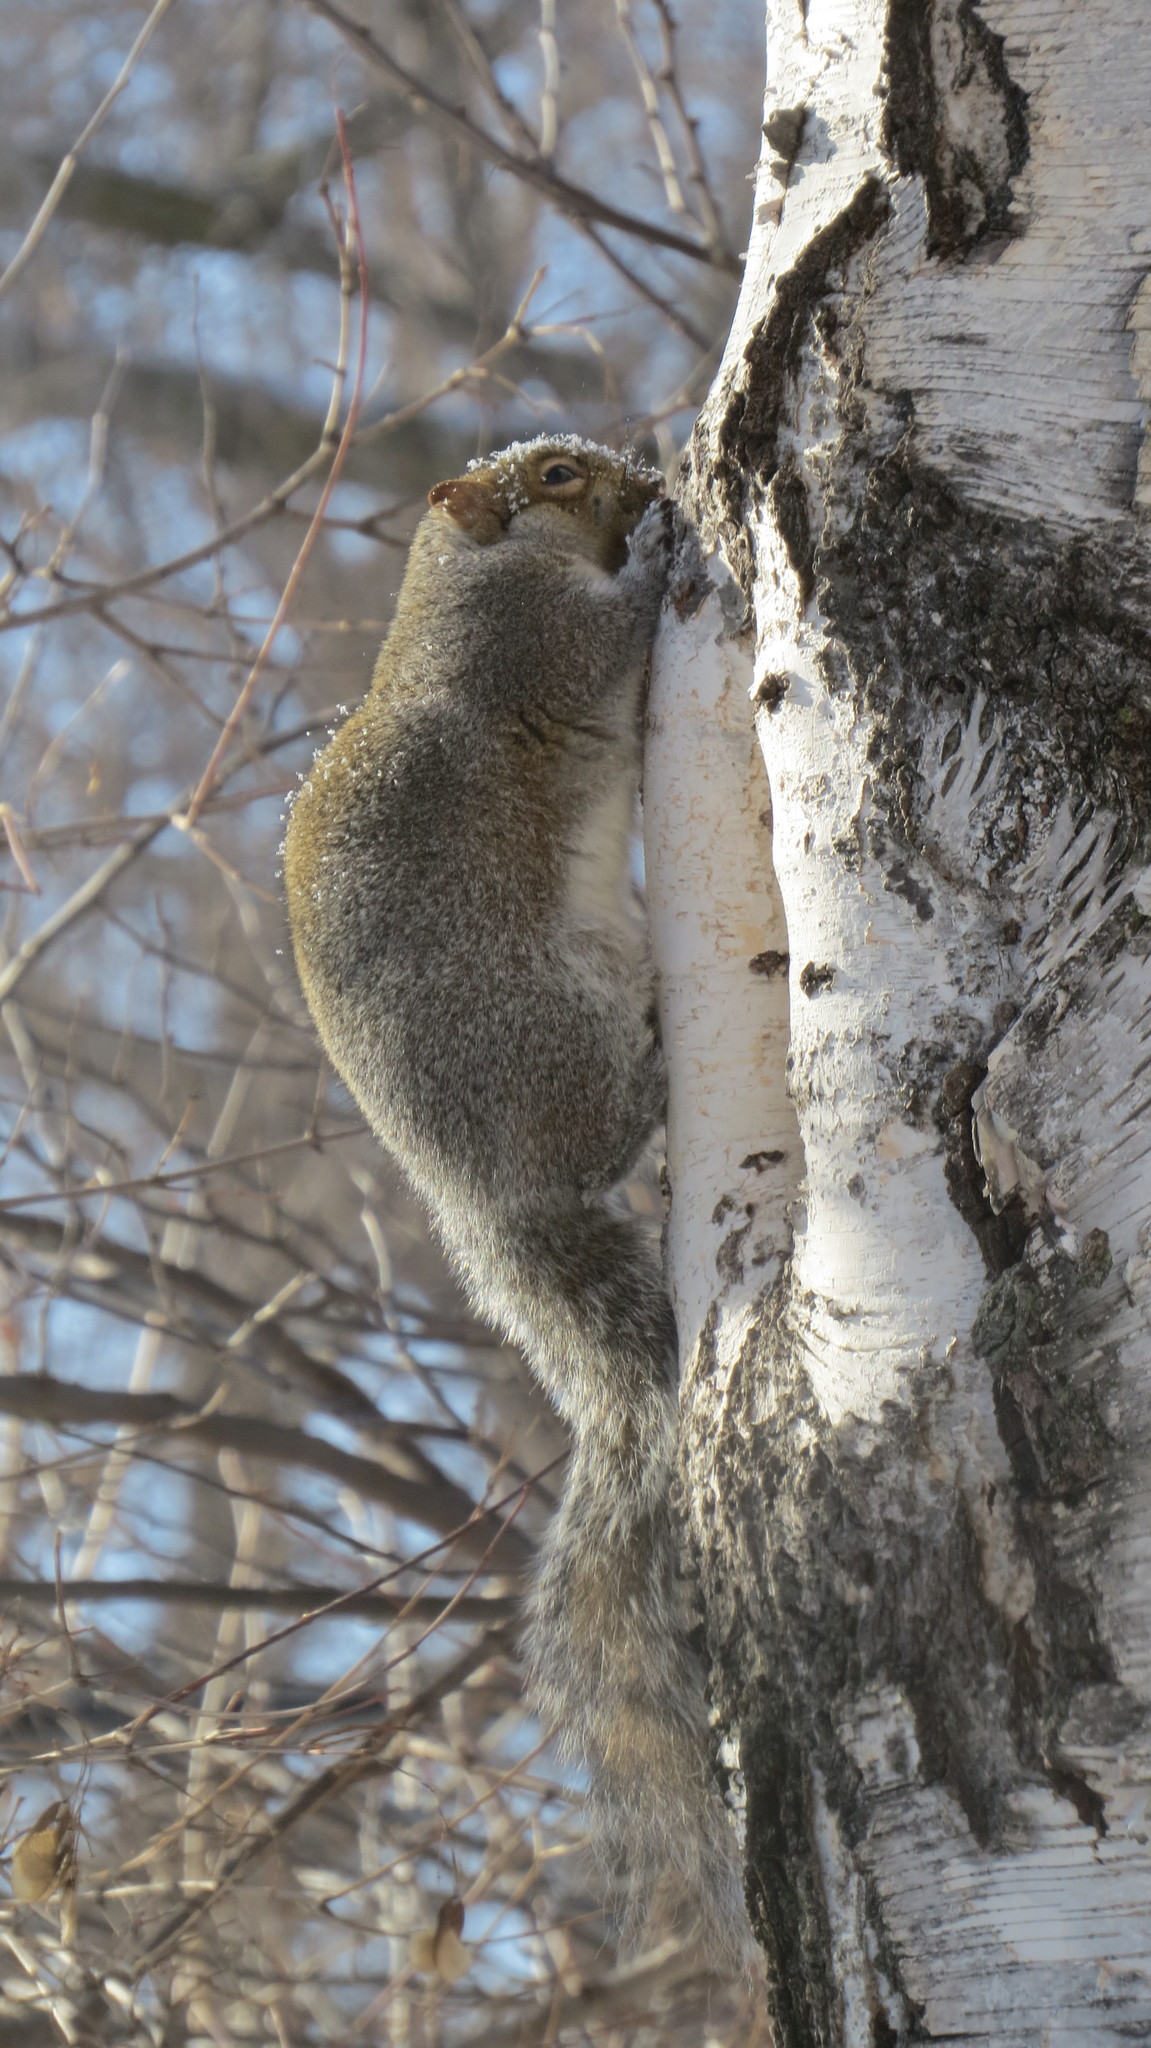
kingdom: Animalia
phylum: Chordata
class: Mammalia
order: Rodentia
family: Sciuridae
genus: Sciurus
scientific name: Sciurus carolinensis
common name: Eastern gray squirrel
